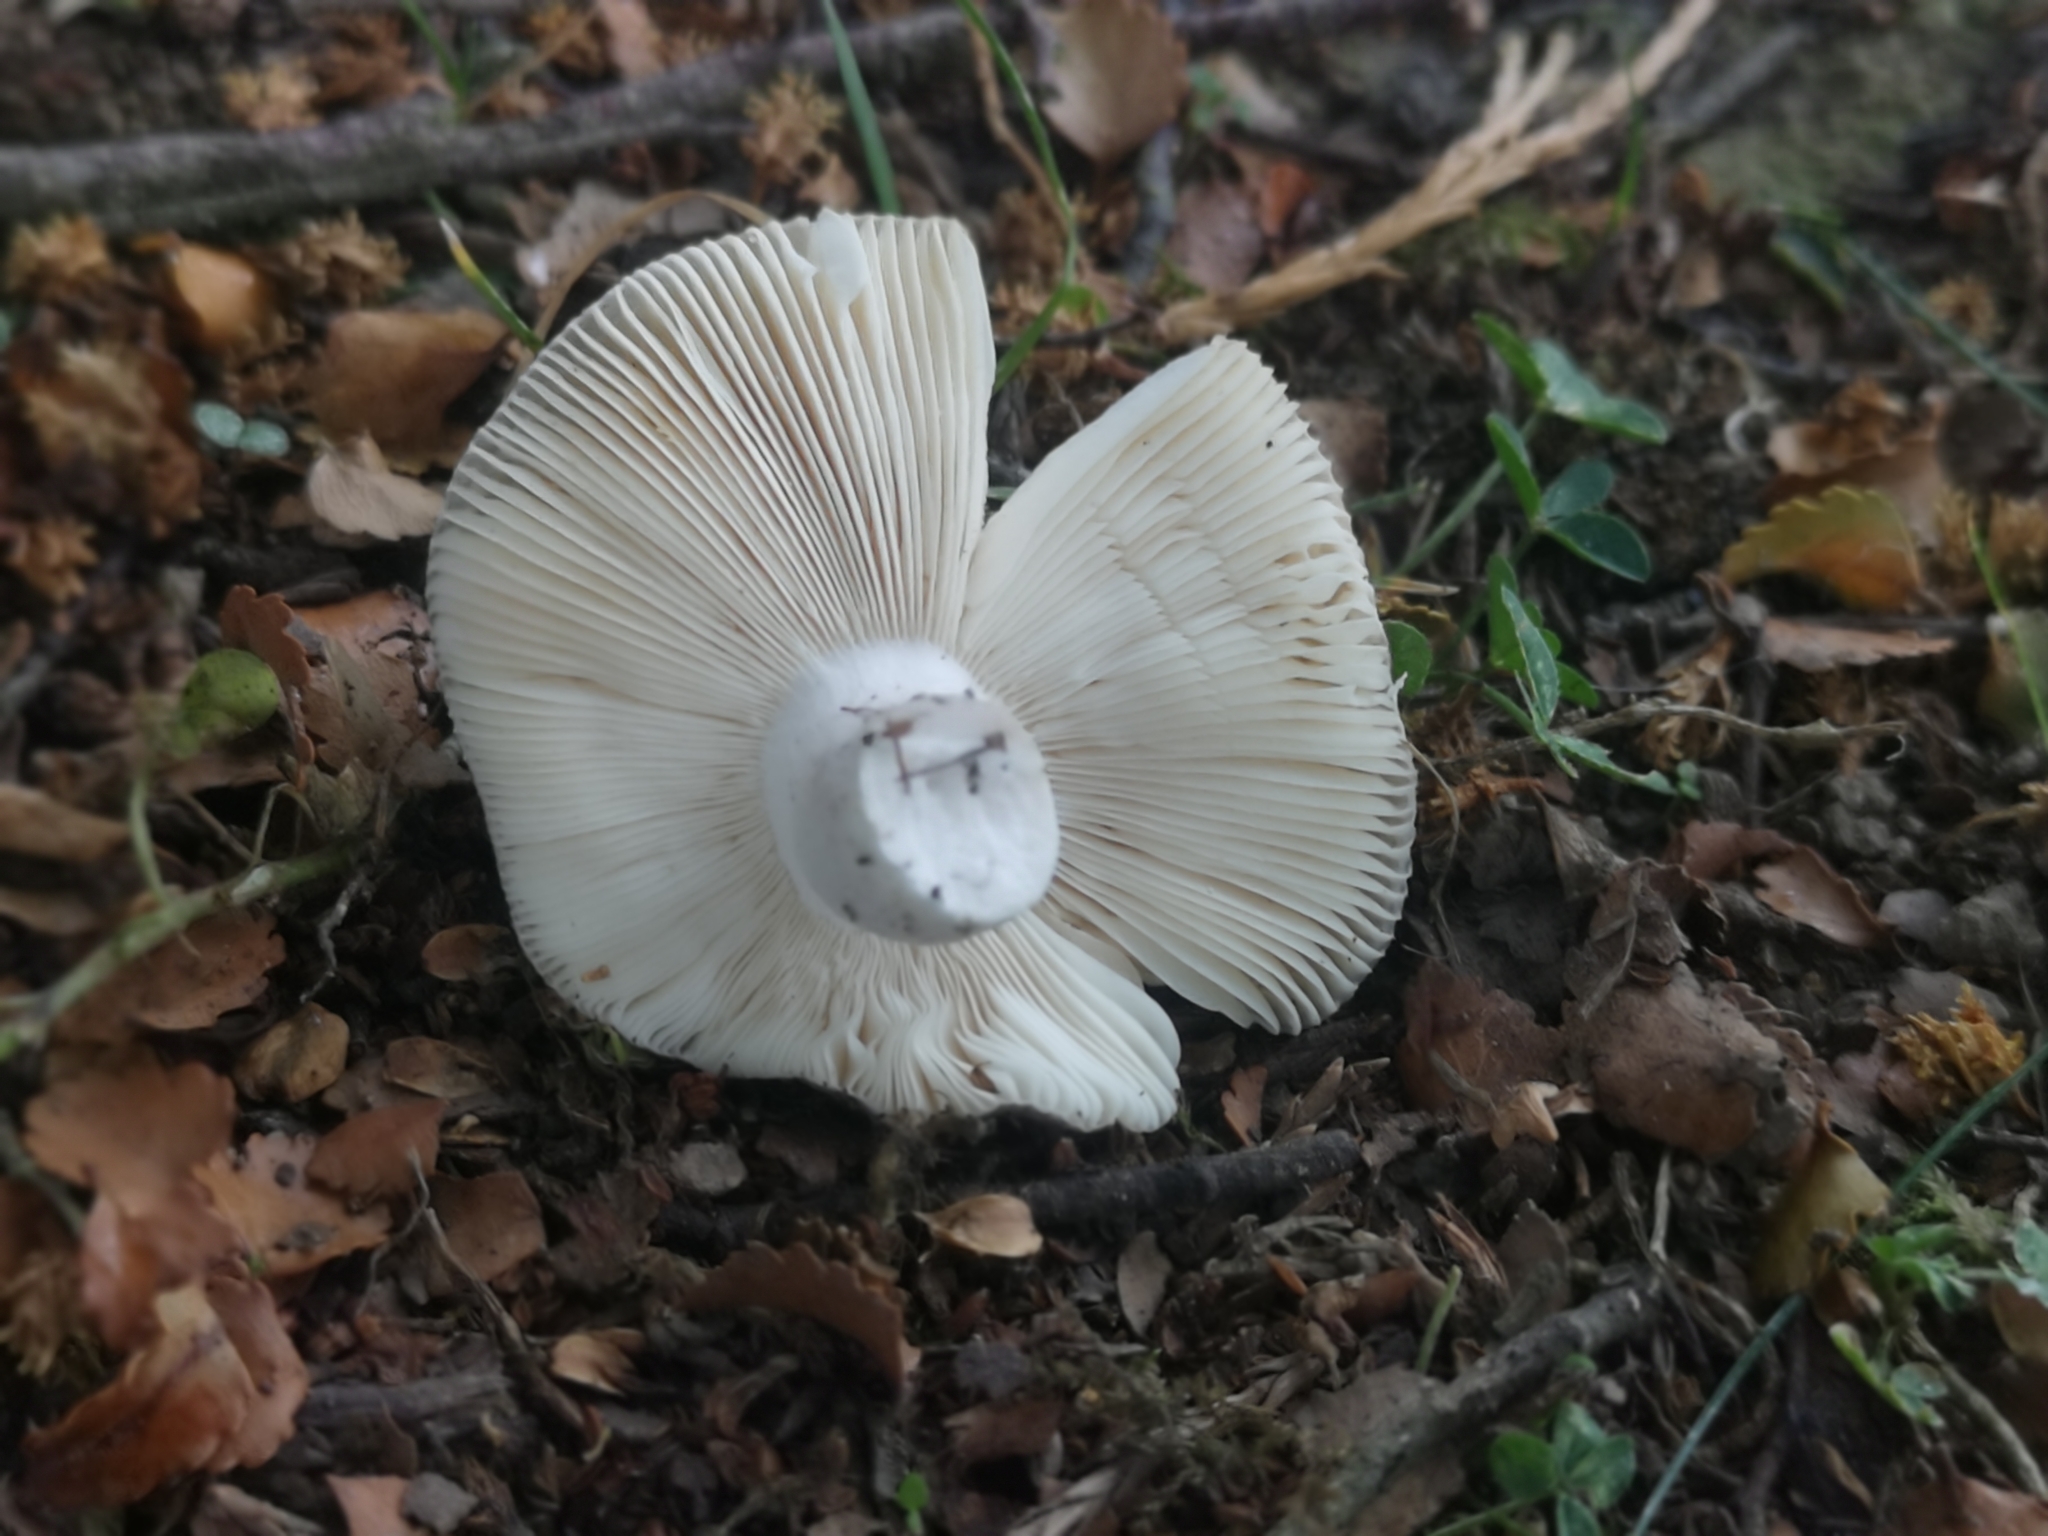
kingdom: Fungi
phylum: Basidiomycota
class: Agaricomycetes
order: Russulales
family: Russulaceae
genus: Russula
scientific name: Russula grisea
